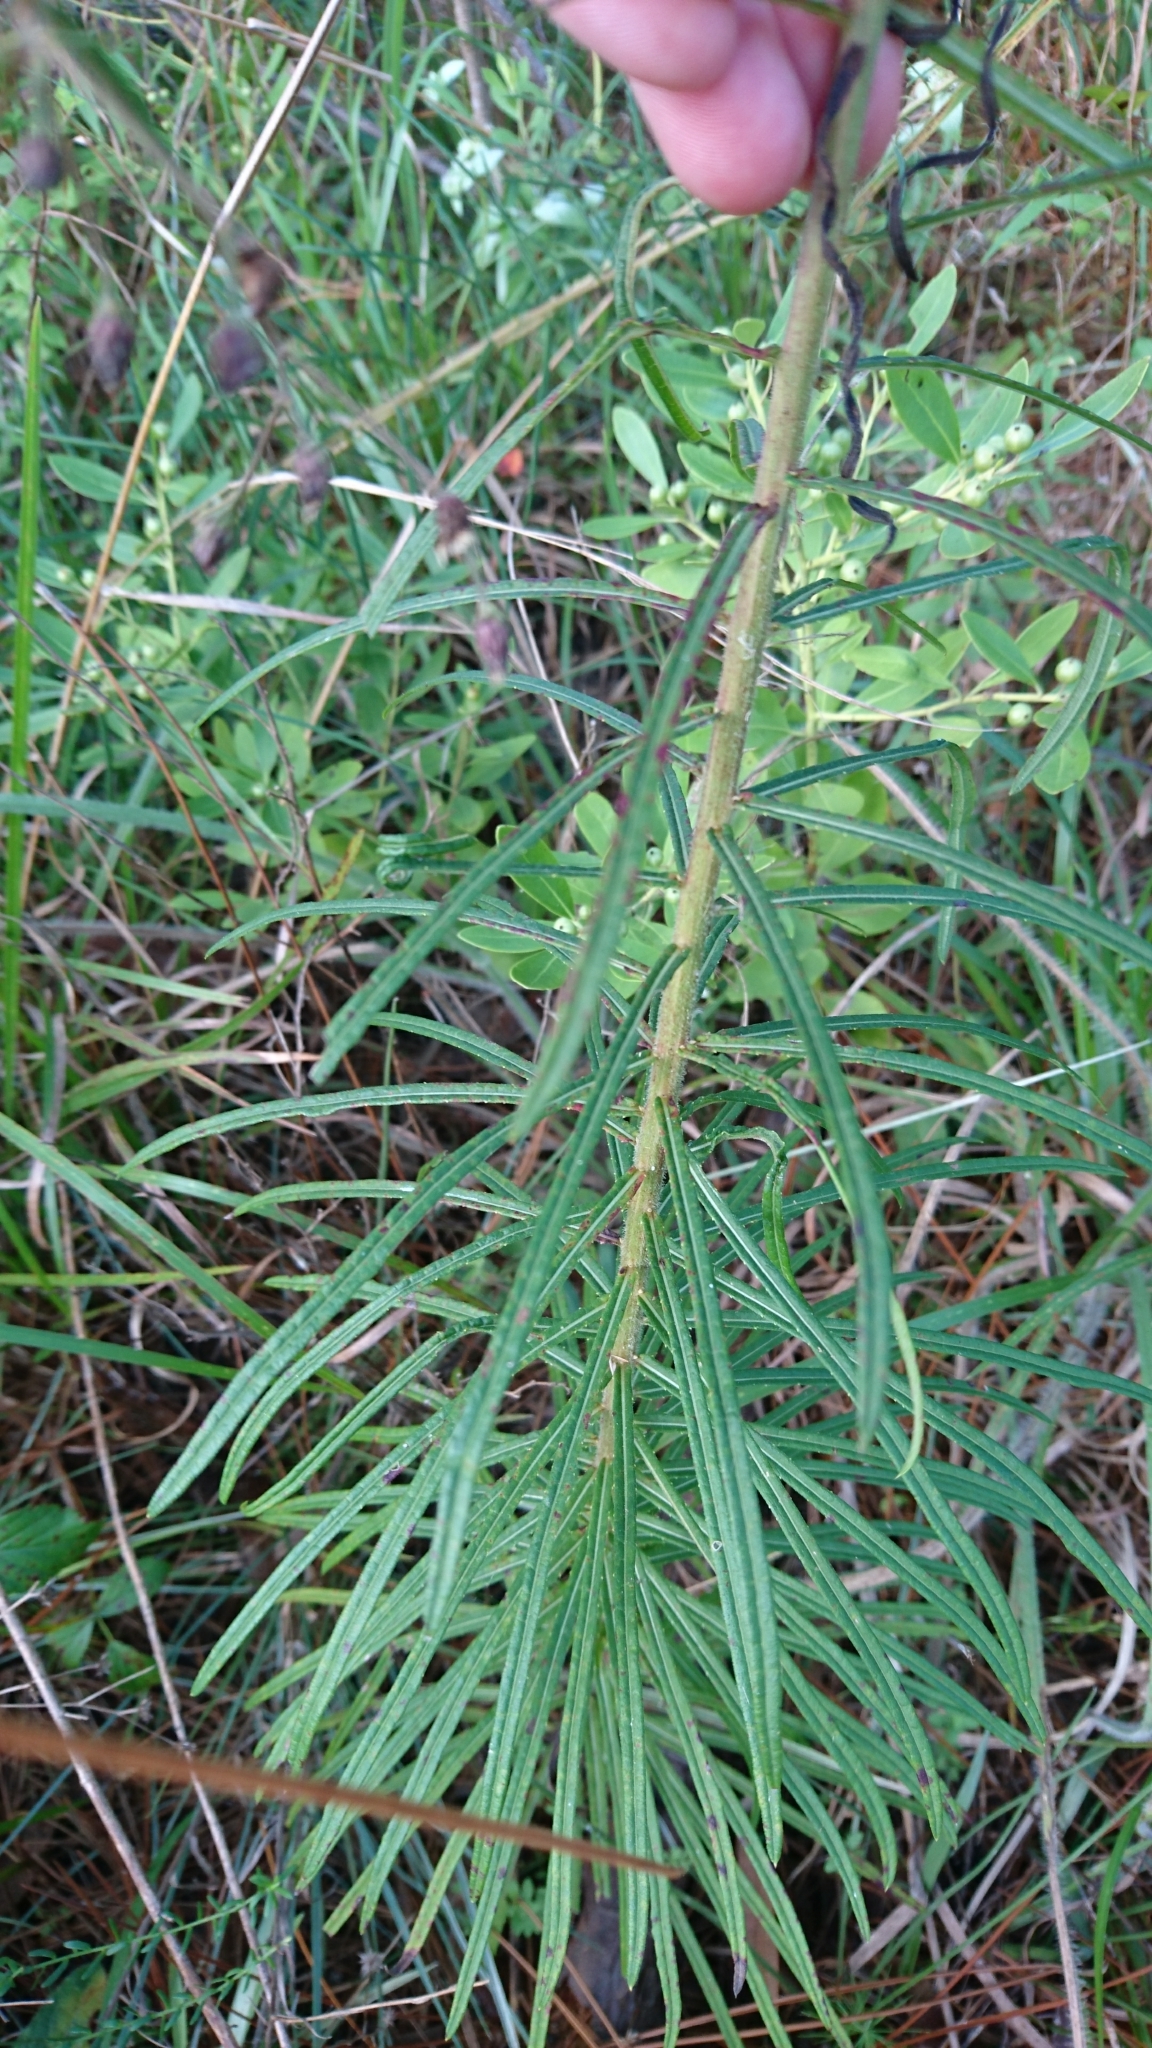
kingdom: Plantae
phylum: Tracheophyta
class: Magnoliopsida
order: Asterales
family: Asteraceae
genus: Vernonia
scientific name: Vernonia angustifolia
